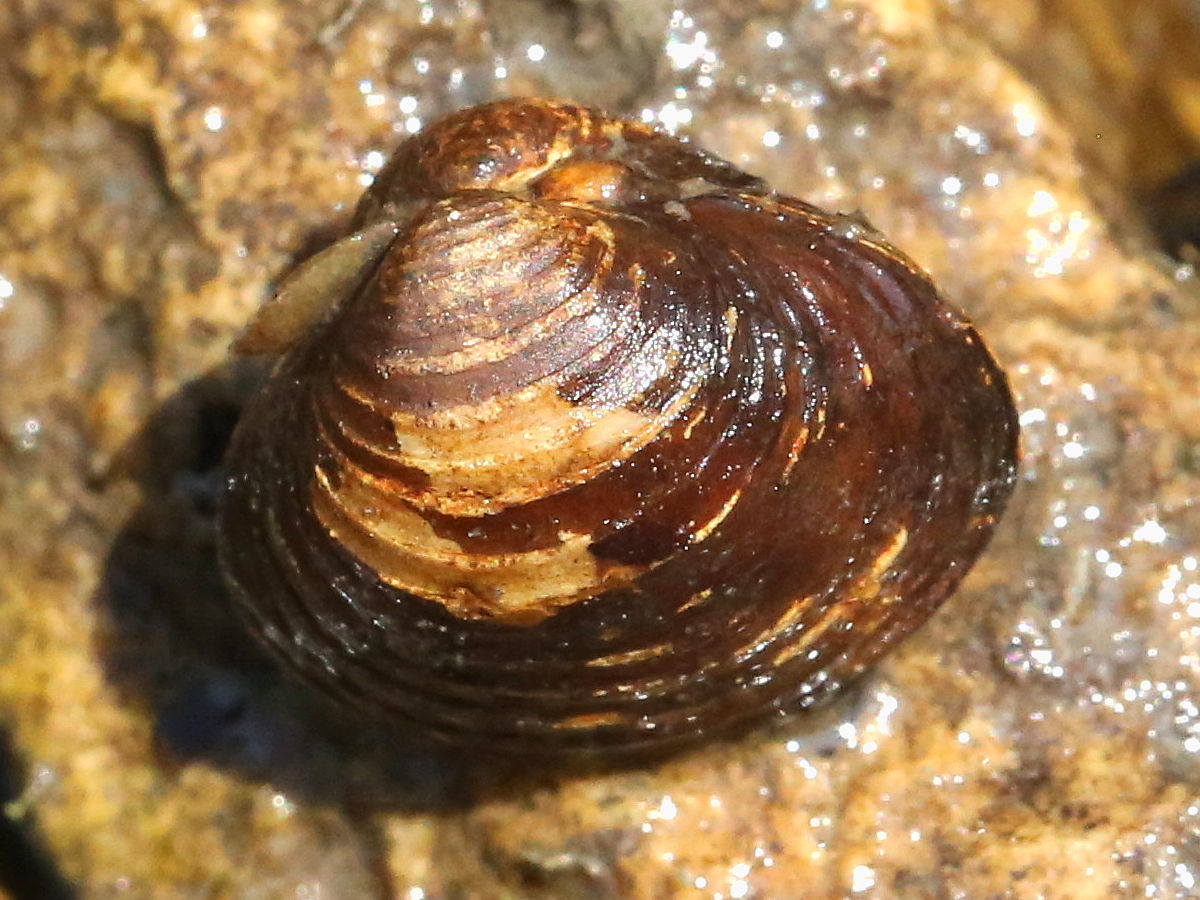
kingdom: Animalia
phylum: Mollusca
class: Bivalvia
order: Venerida
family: Cyrenidae
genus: Corbicula
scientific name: Corbicula fluminea
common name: Asian clam
